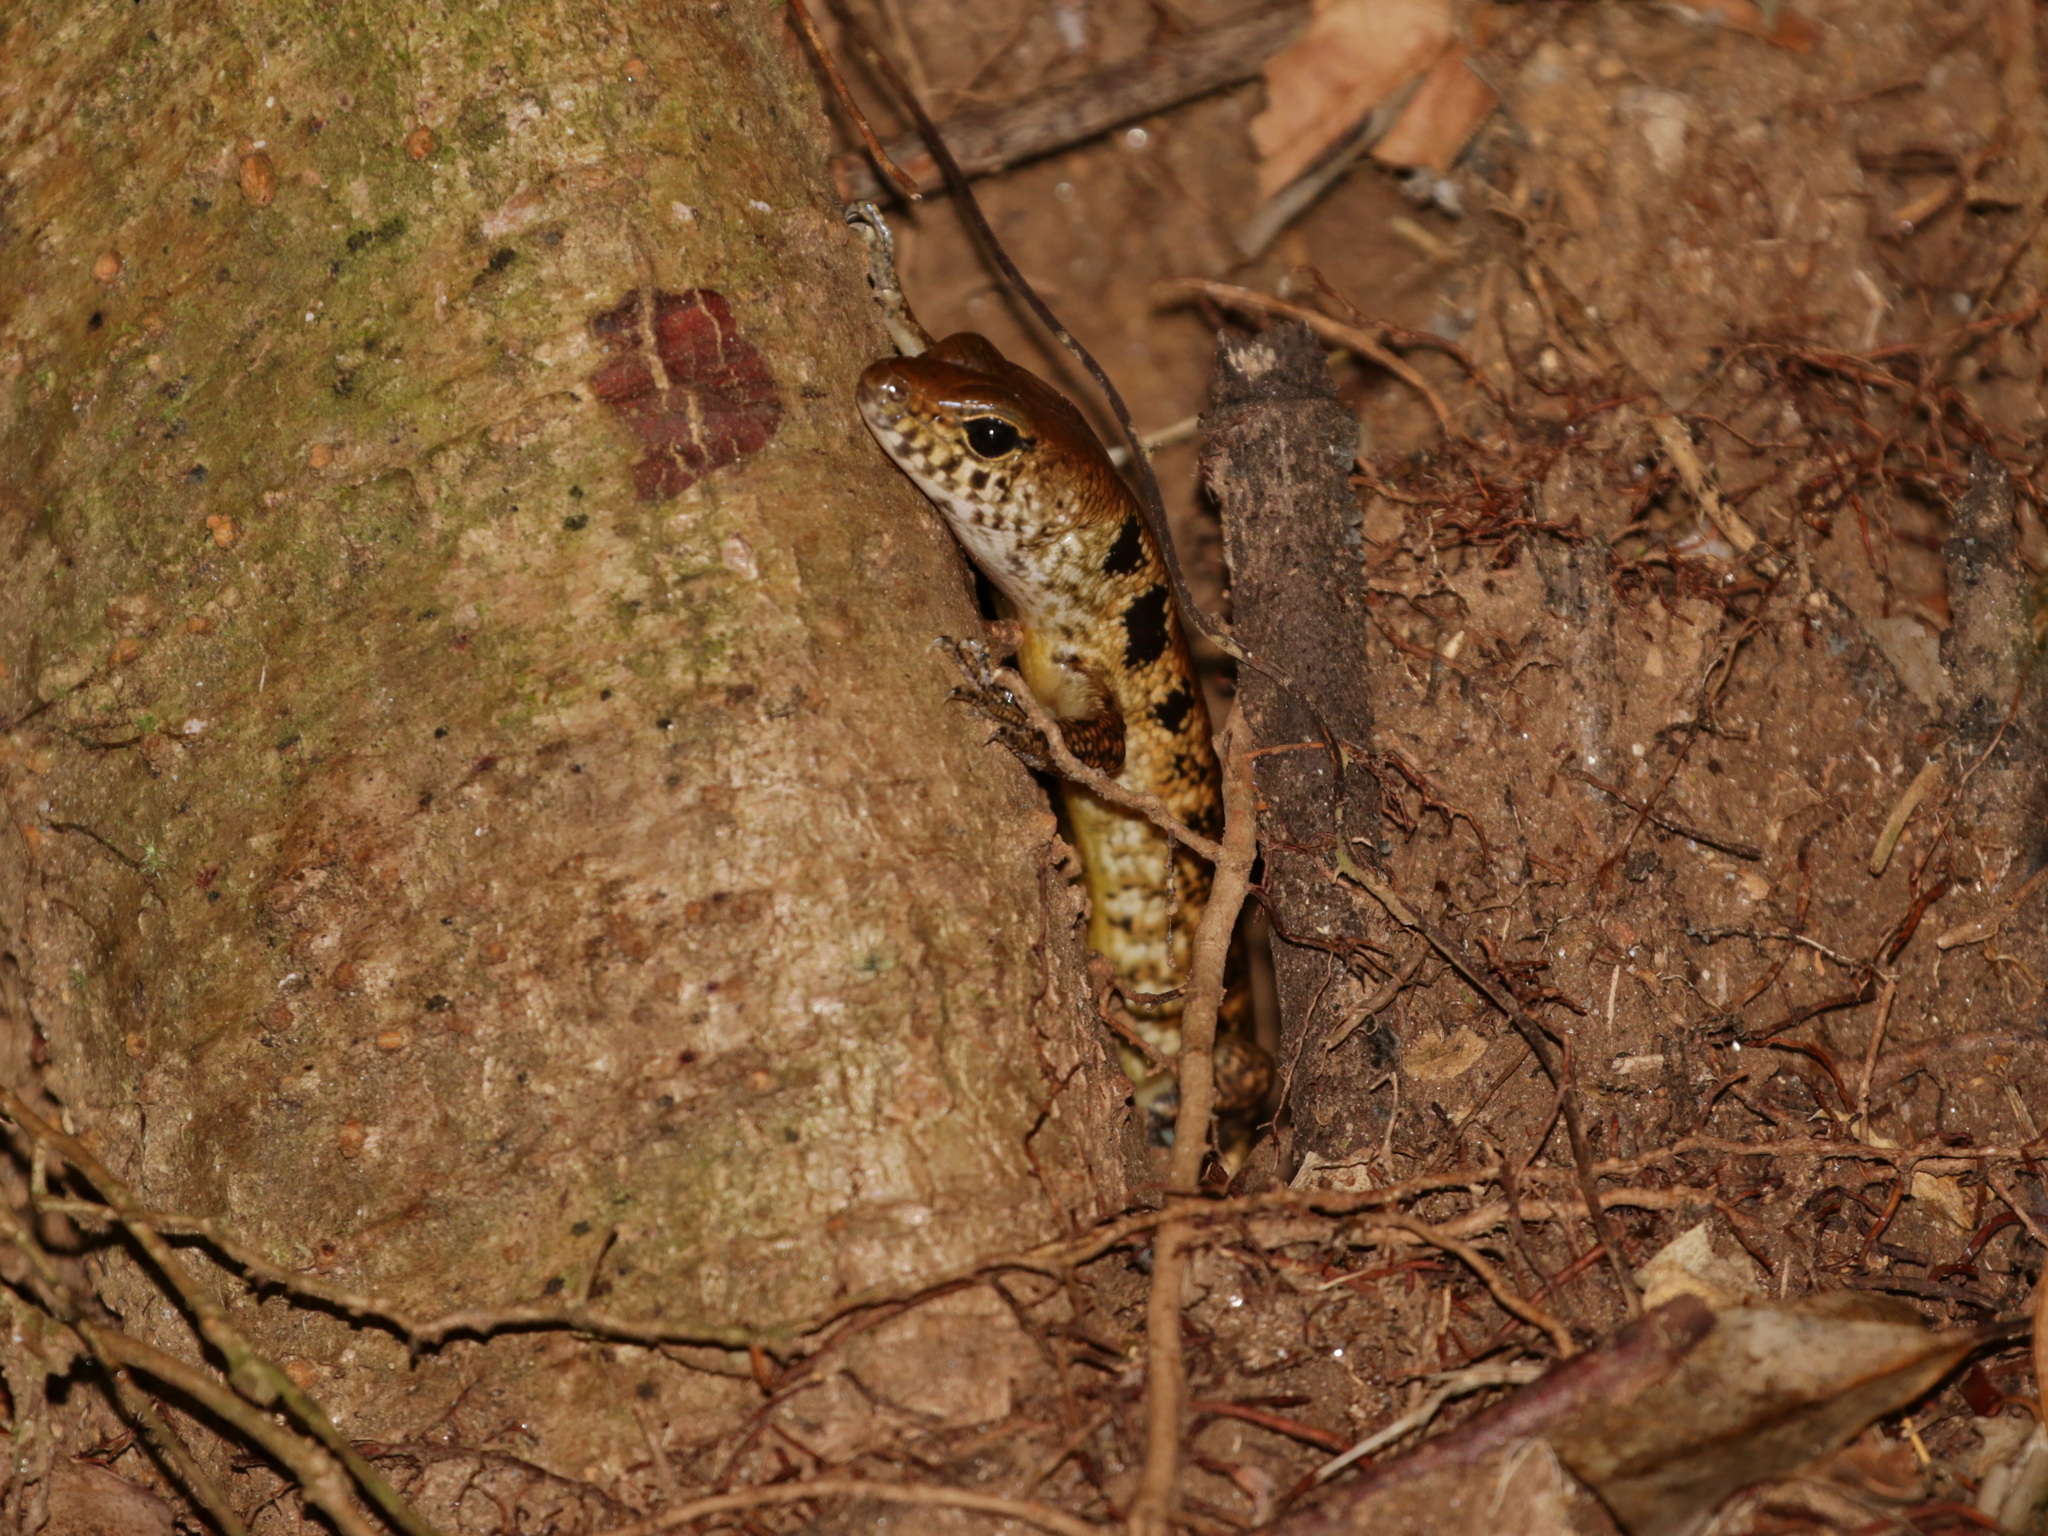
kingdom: Animalia
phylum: Chordata
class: Squamata
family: Scincidae
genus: Sphenomorphus
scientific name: Sphenomorphus praesignis
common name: Blotched forest skink
